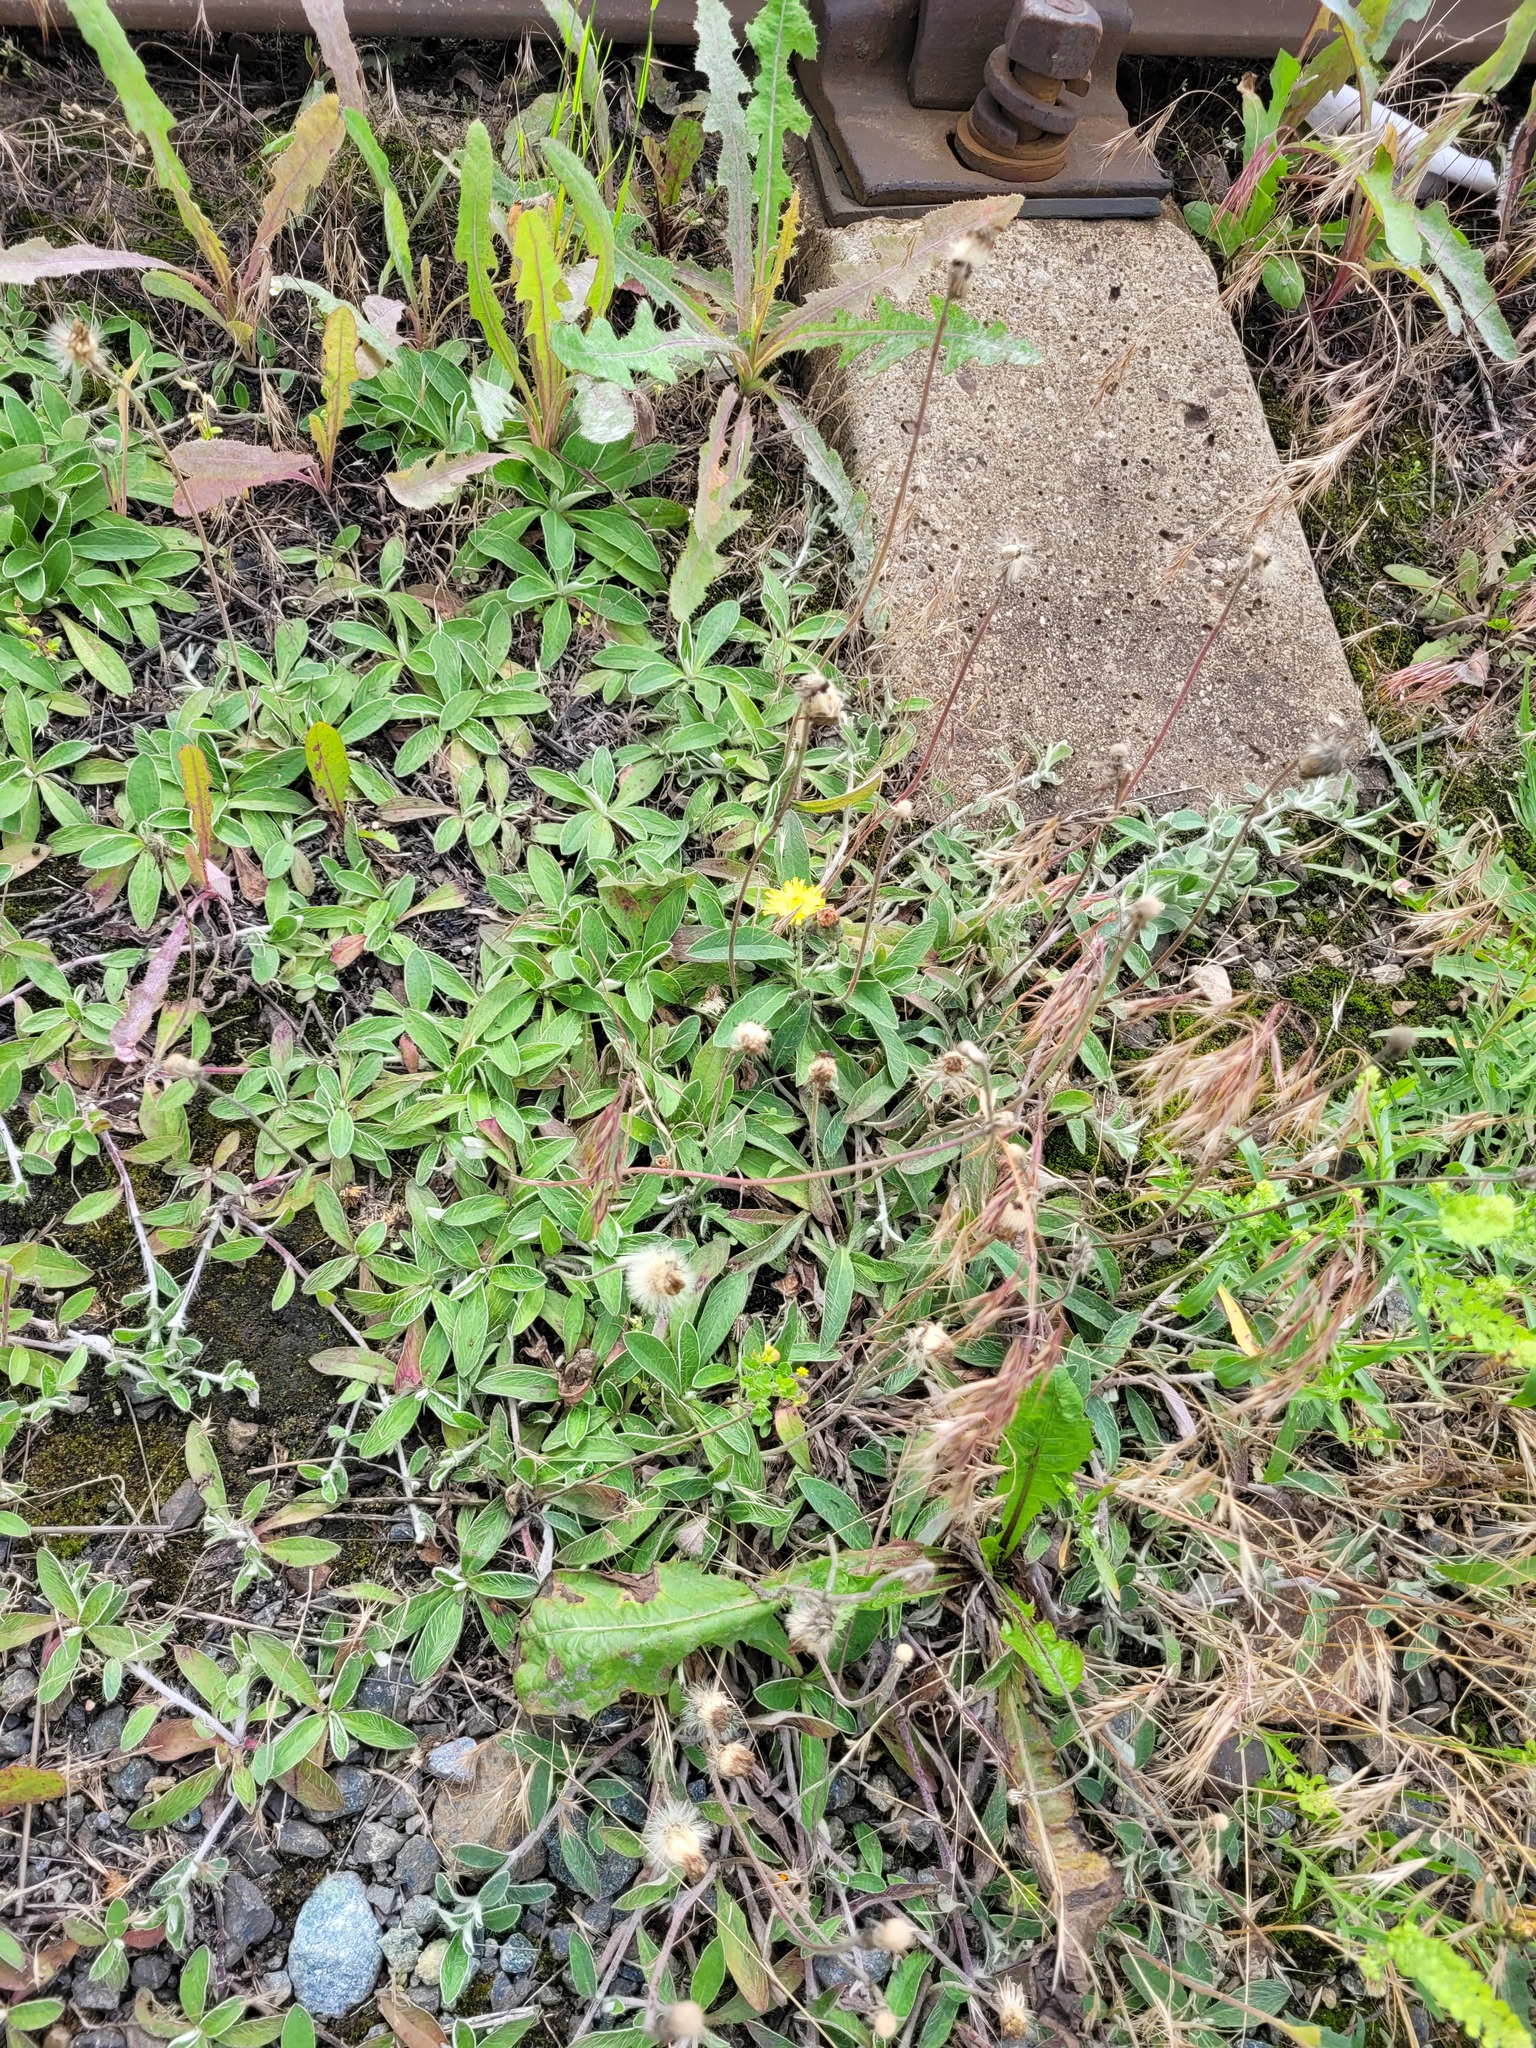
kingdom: Plantae
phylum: Tracheophyta
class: Magnoliopsida
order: Asterales
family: Asteraceae
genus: Pilosella
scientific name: Pilosella officinarum
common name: Mouse-ear hawkweed
